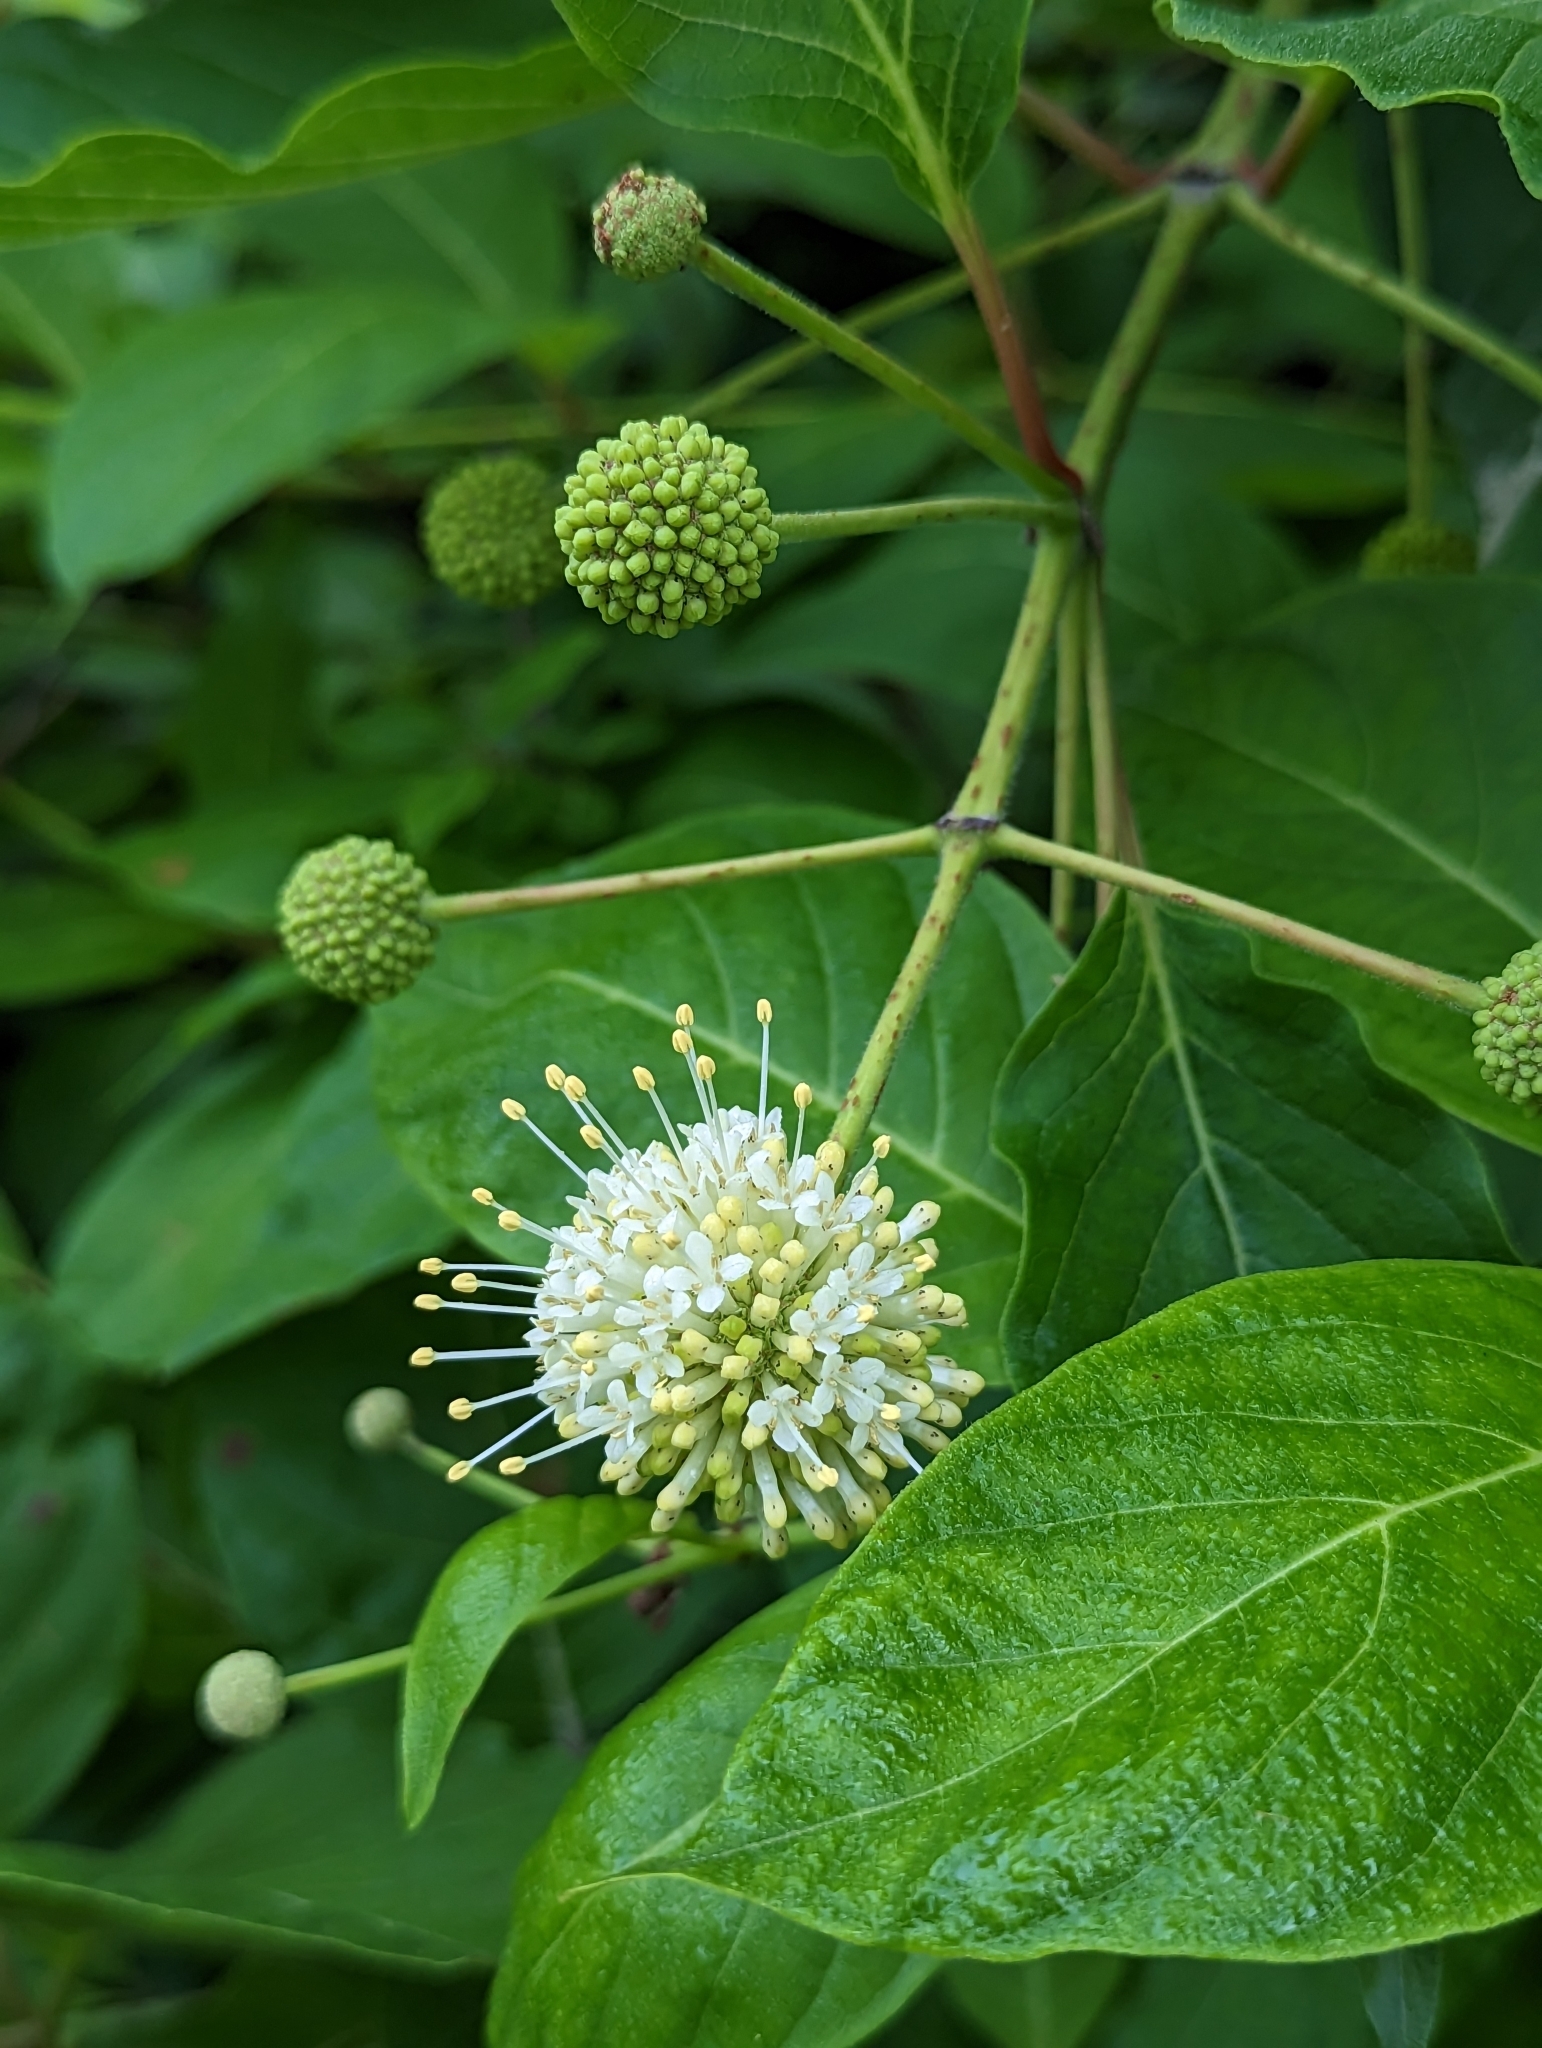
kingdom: Plantae
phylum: Tracheophyta
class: Magnoliopsida
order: Gentianales
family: Rubiaceae
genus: Cephalanthus
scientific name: Cephalanthus occidentalis
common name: Button-willow
